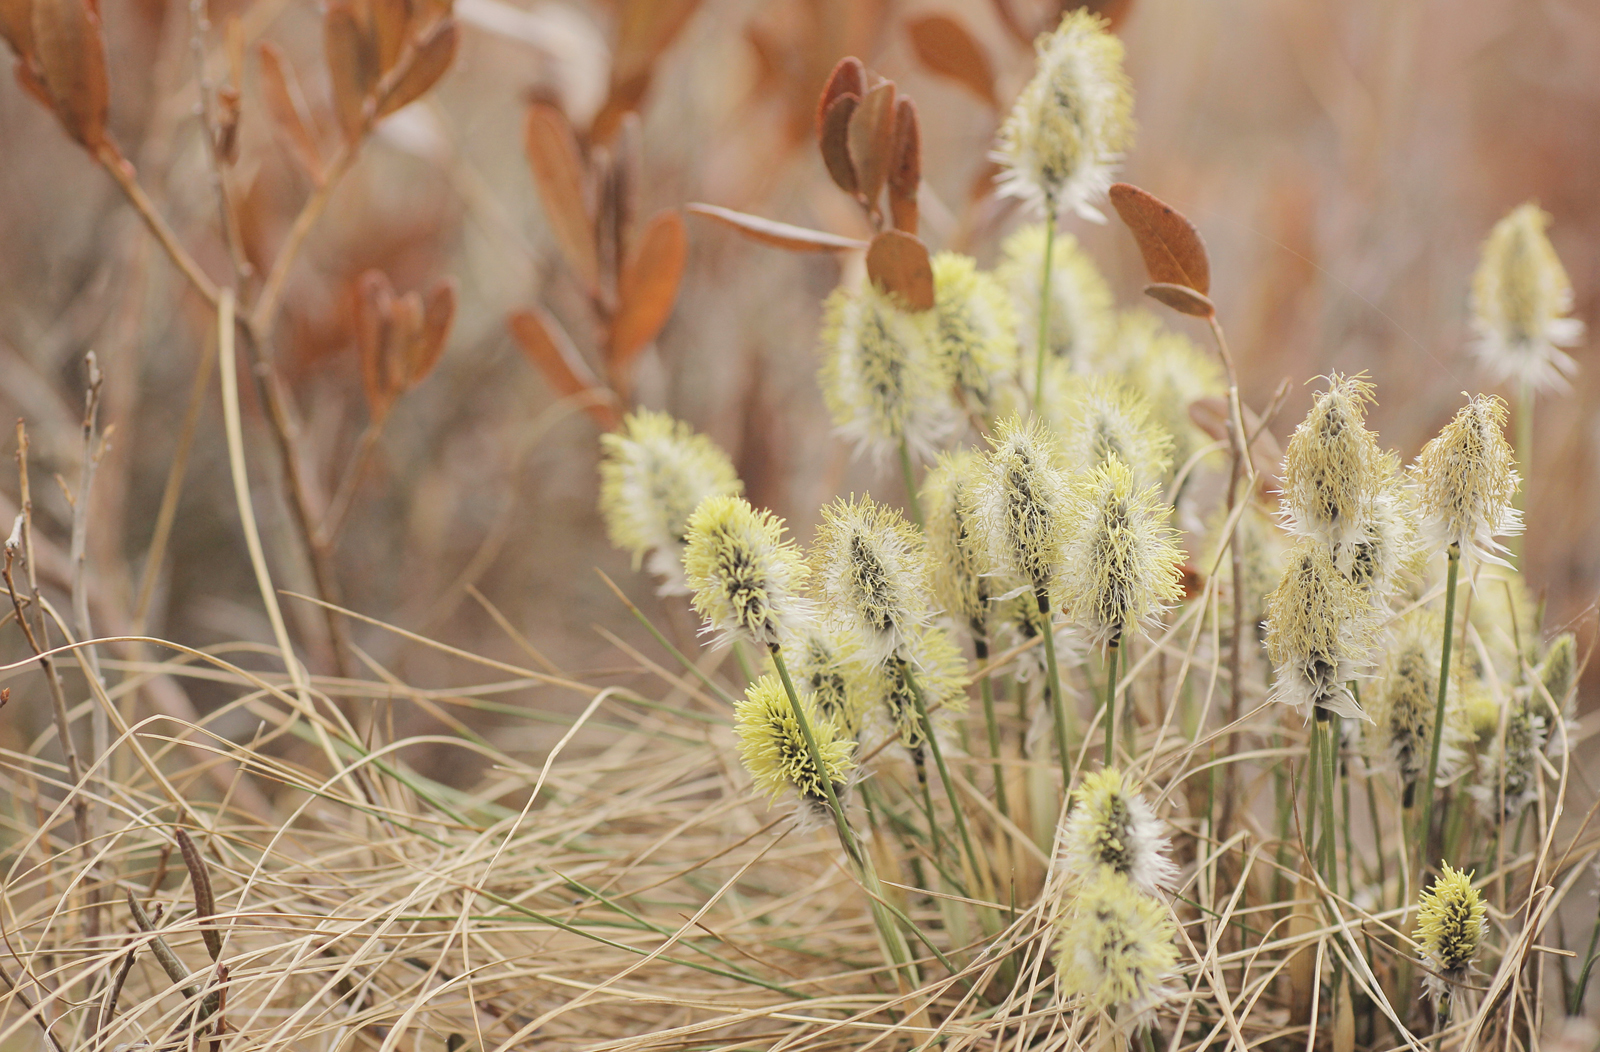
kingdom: Plantae
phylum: Tracheophyta
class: Liliopsida
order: Poales
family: Cyperaceae
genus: Eriophorum
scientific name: Eriophorum vaginatum
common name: Hare's-tail cottongrass
